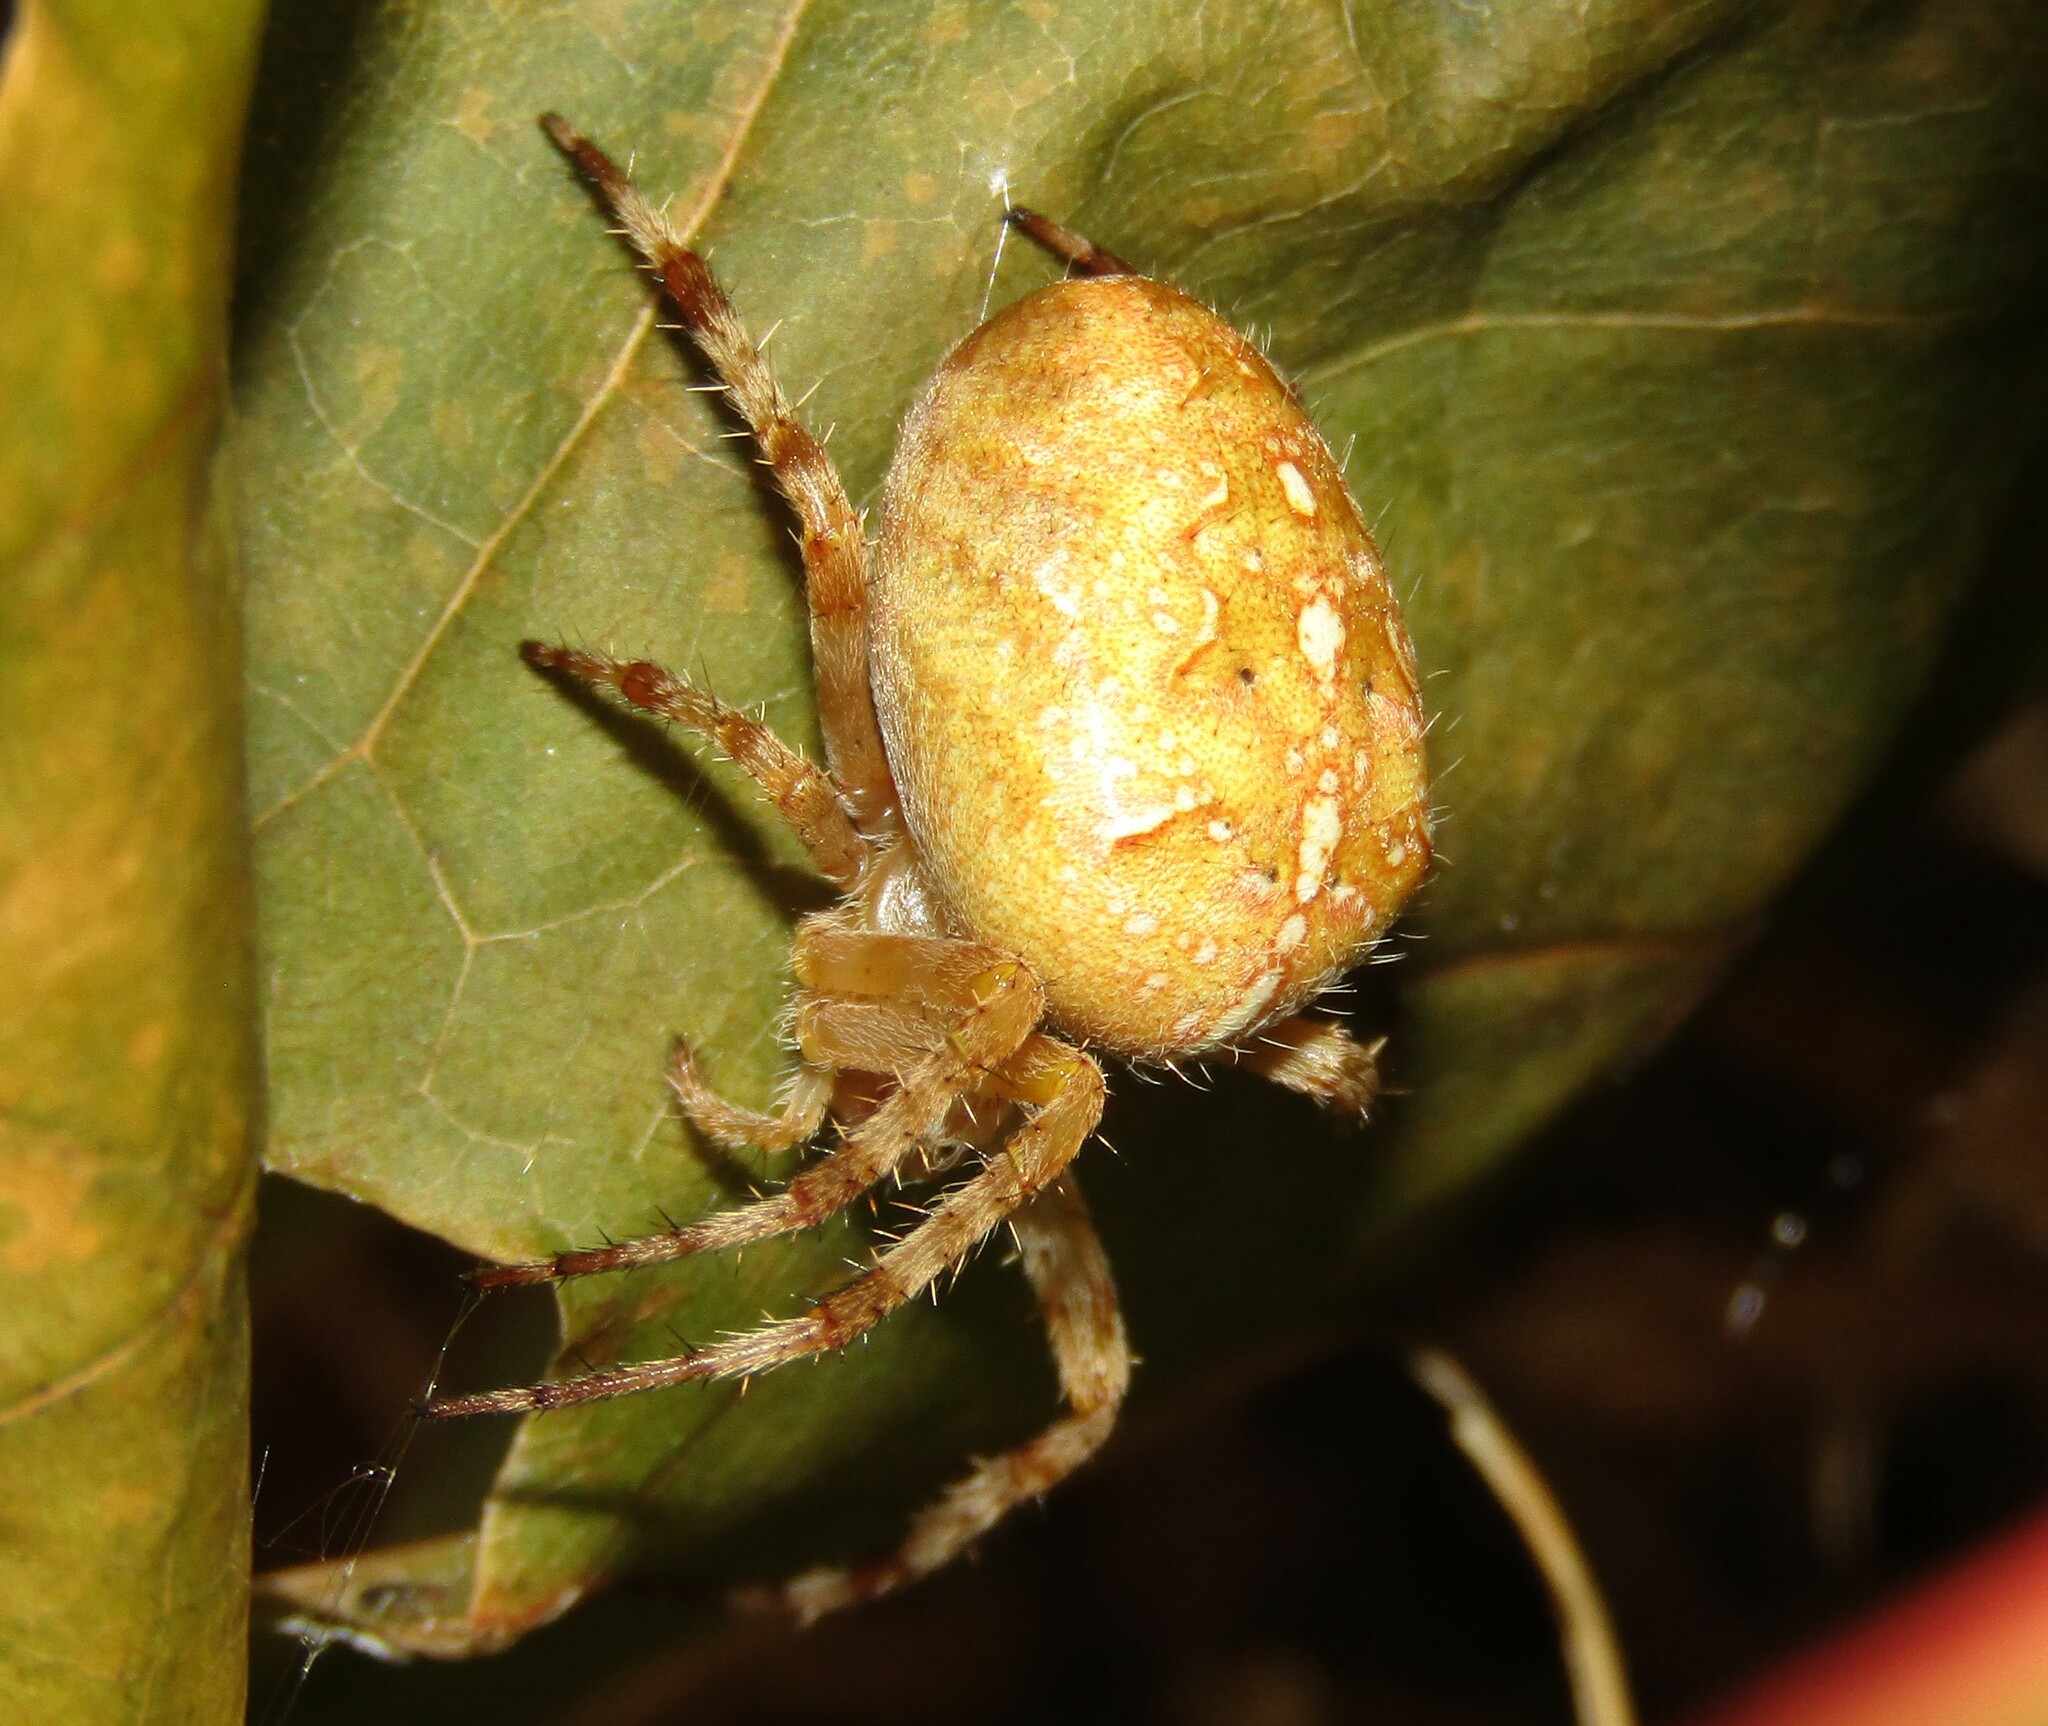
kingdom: Animalia
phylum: Arthropoda
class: Arachnida
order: Araneae
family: Araneidae
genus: Araneus
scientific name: Araneus diadematus
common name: Cross orbweaver
